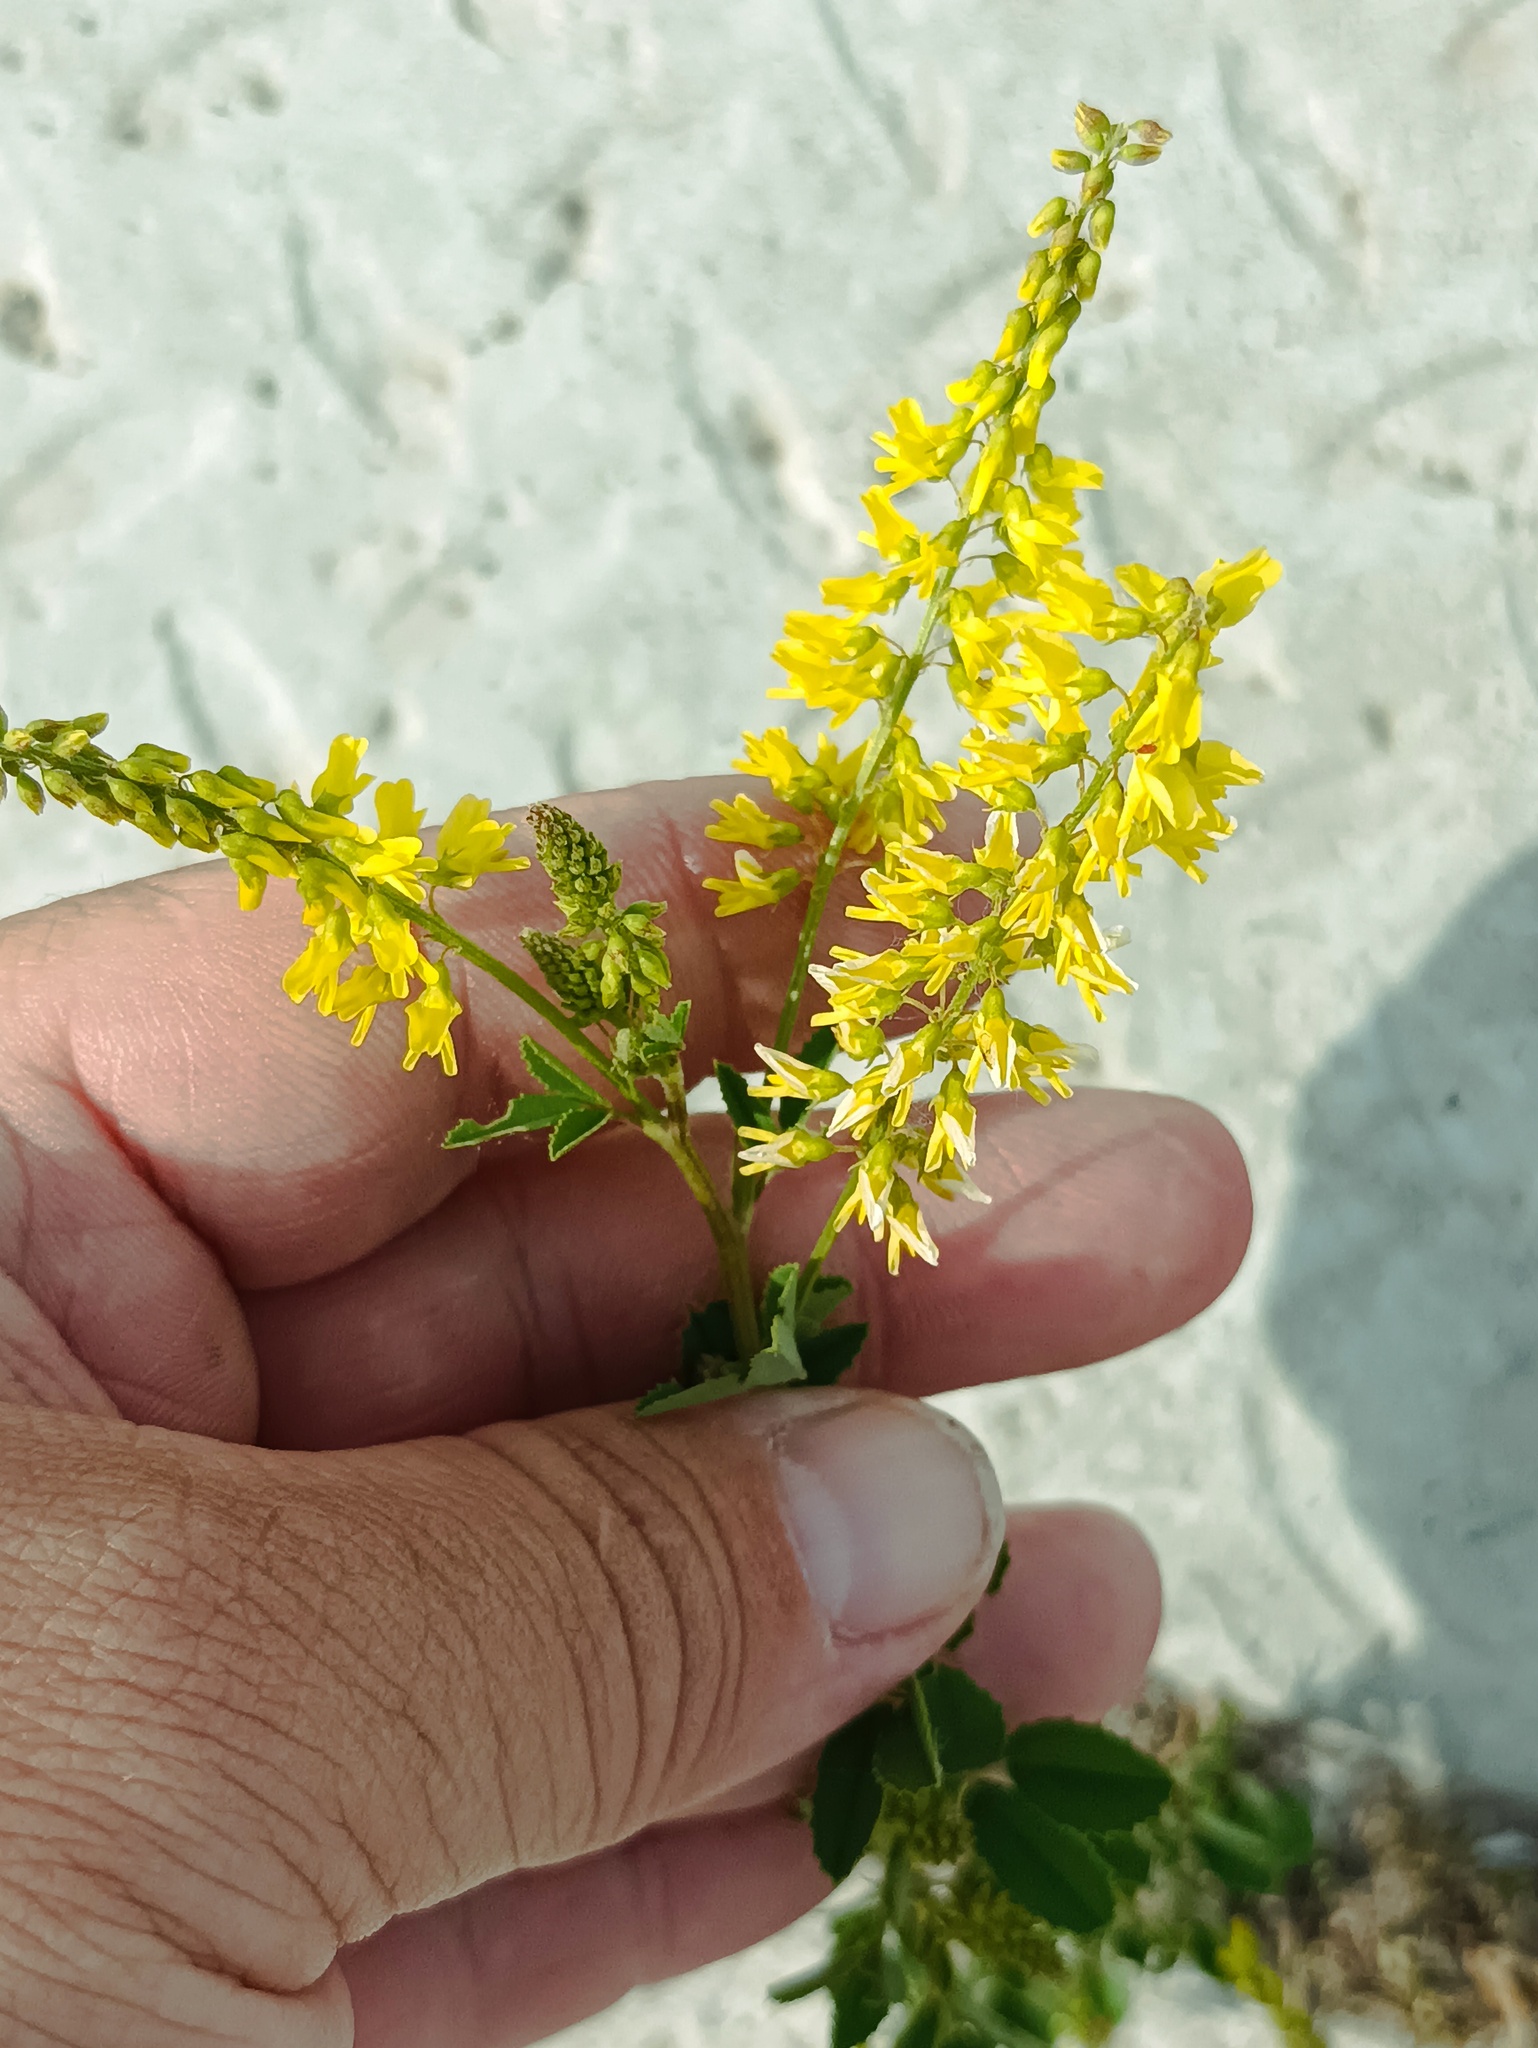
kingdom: Plantae
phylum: Tracheophyta
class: Magnoliopsida
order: Fabales
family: Fabaceae
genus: Melilotus
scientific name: Melilotus officinalis
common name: Sweetclover
